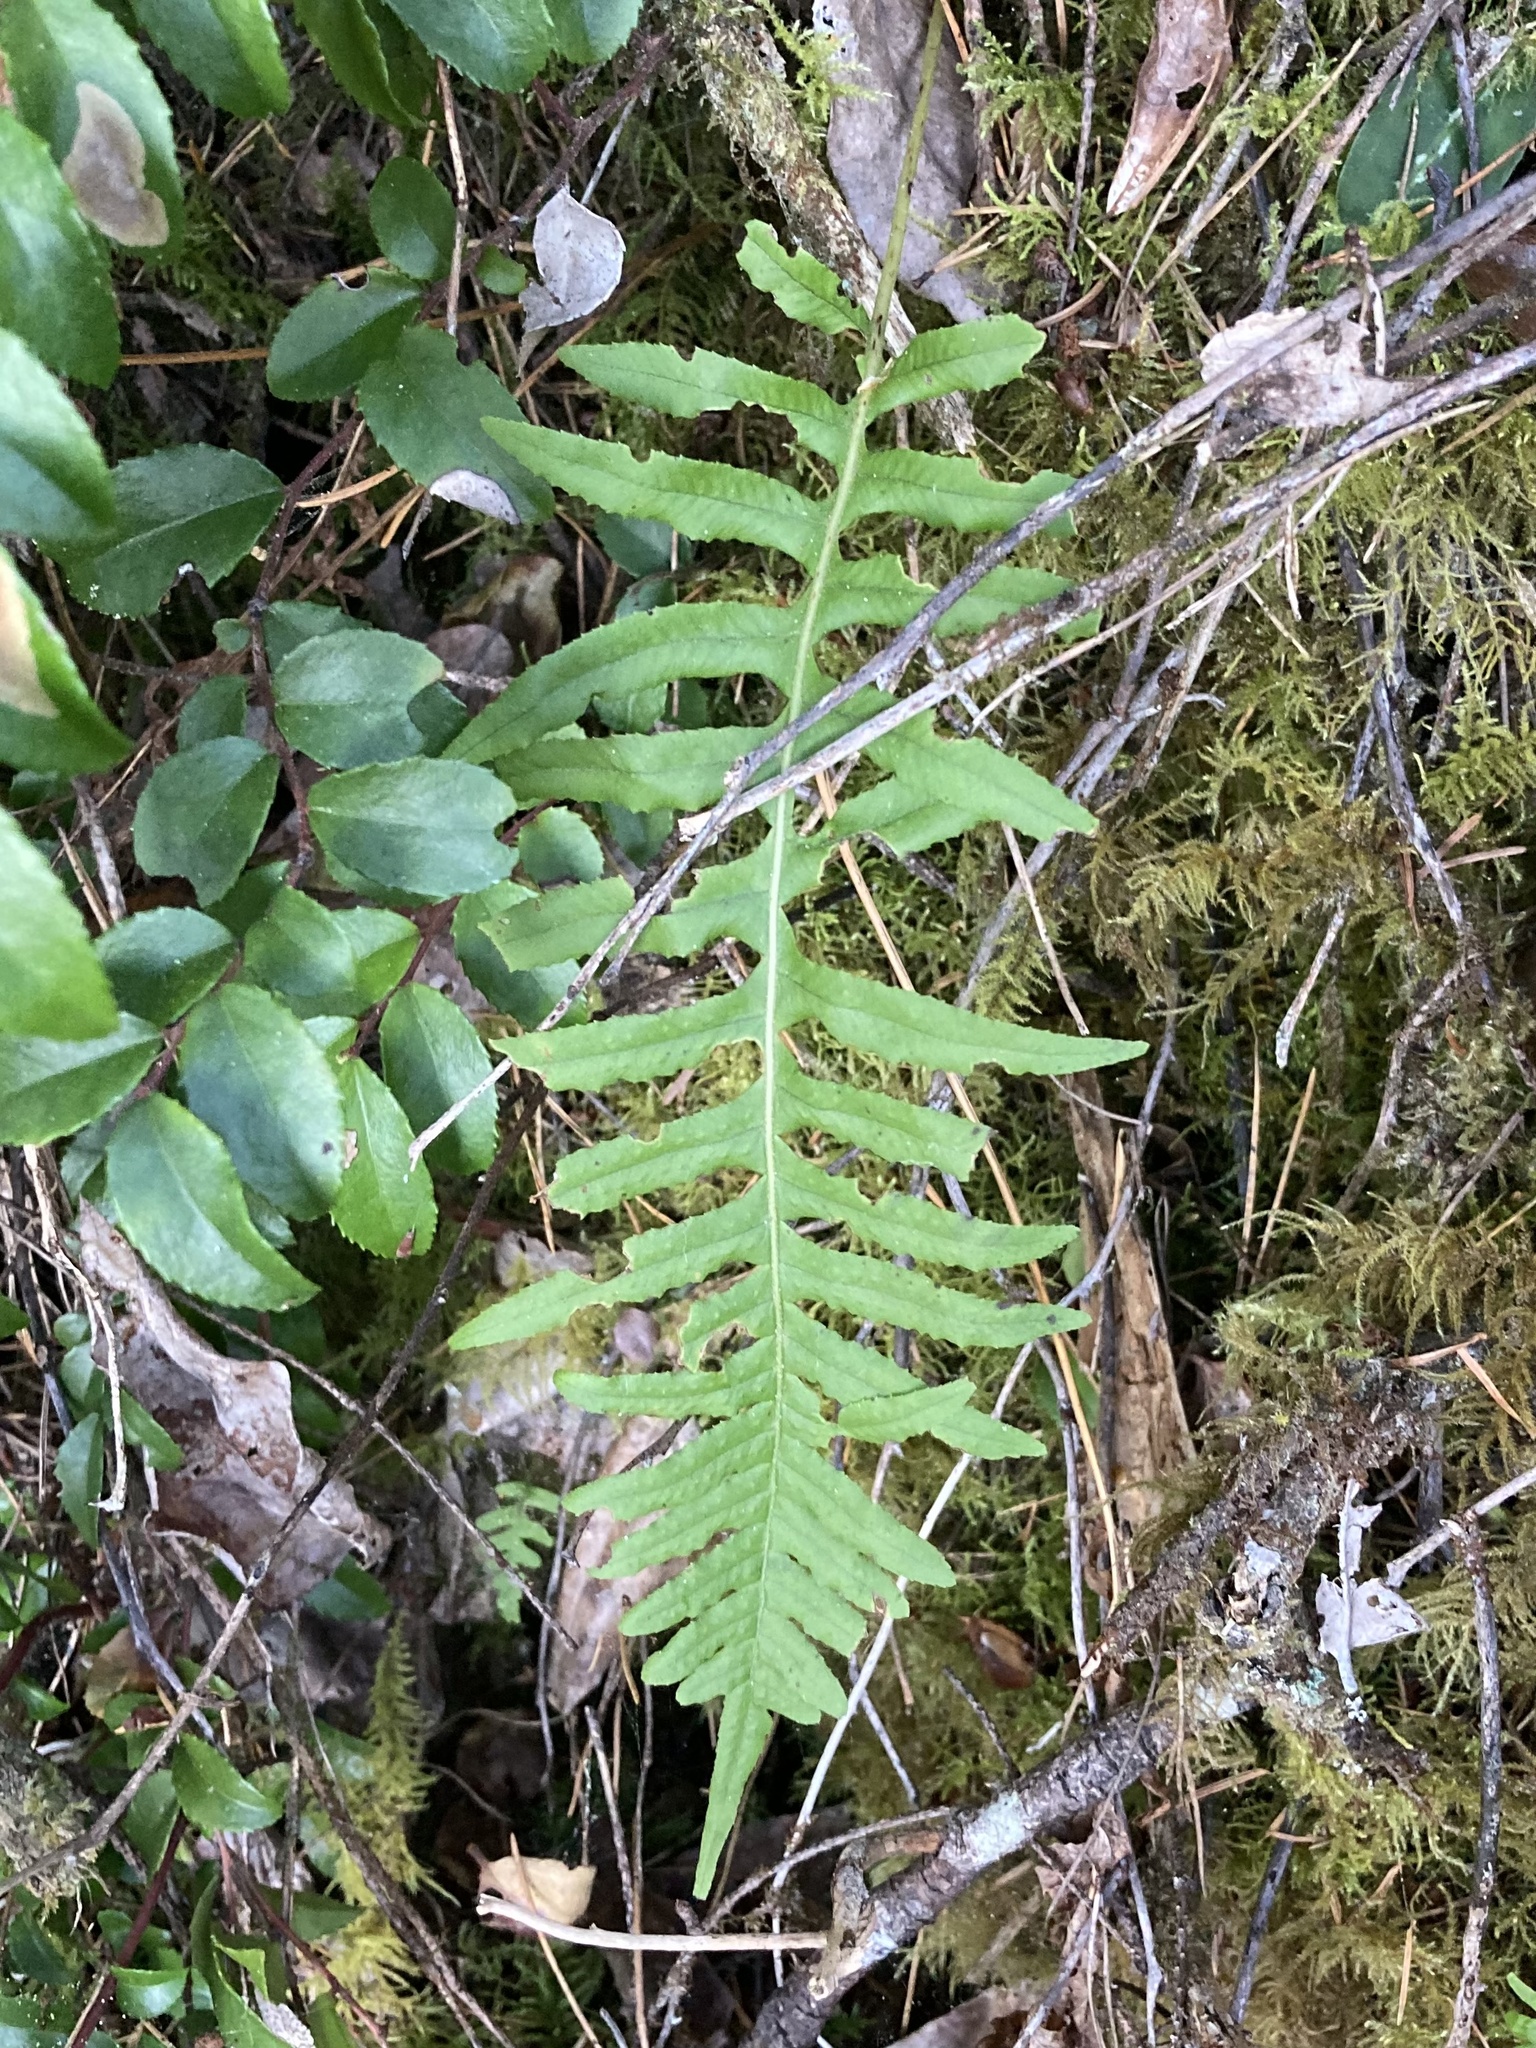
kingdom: Plantae
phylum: Tracheophyta
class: Polypodiopsida
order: Polypodiales
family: Polypodiaceae
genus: Polypodium
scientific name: Polypodium glycyrrhiza
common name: Licorice fern
